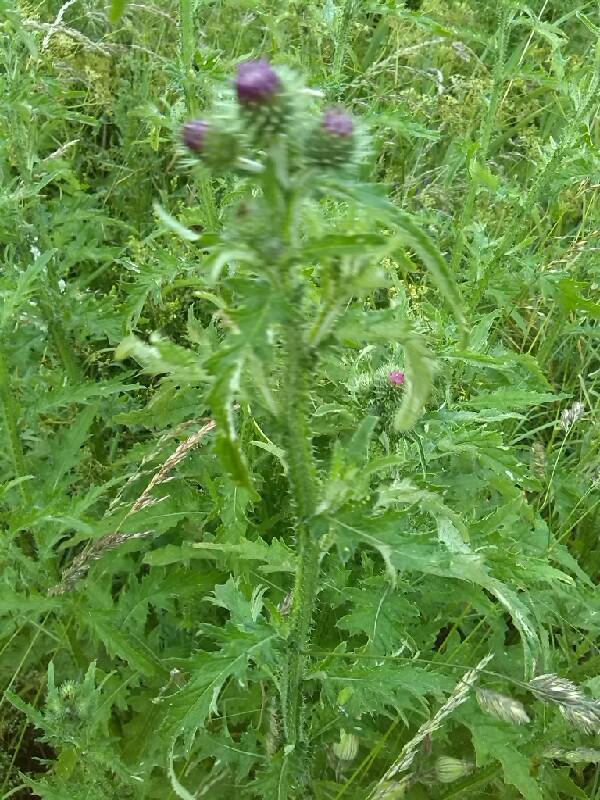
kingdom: Plantae
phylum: Tracheophyta
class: Magnoliopsida
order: Asterales
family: Asteraceae
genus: Carduus
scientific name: Carduus crispus
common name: Welted thistle
